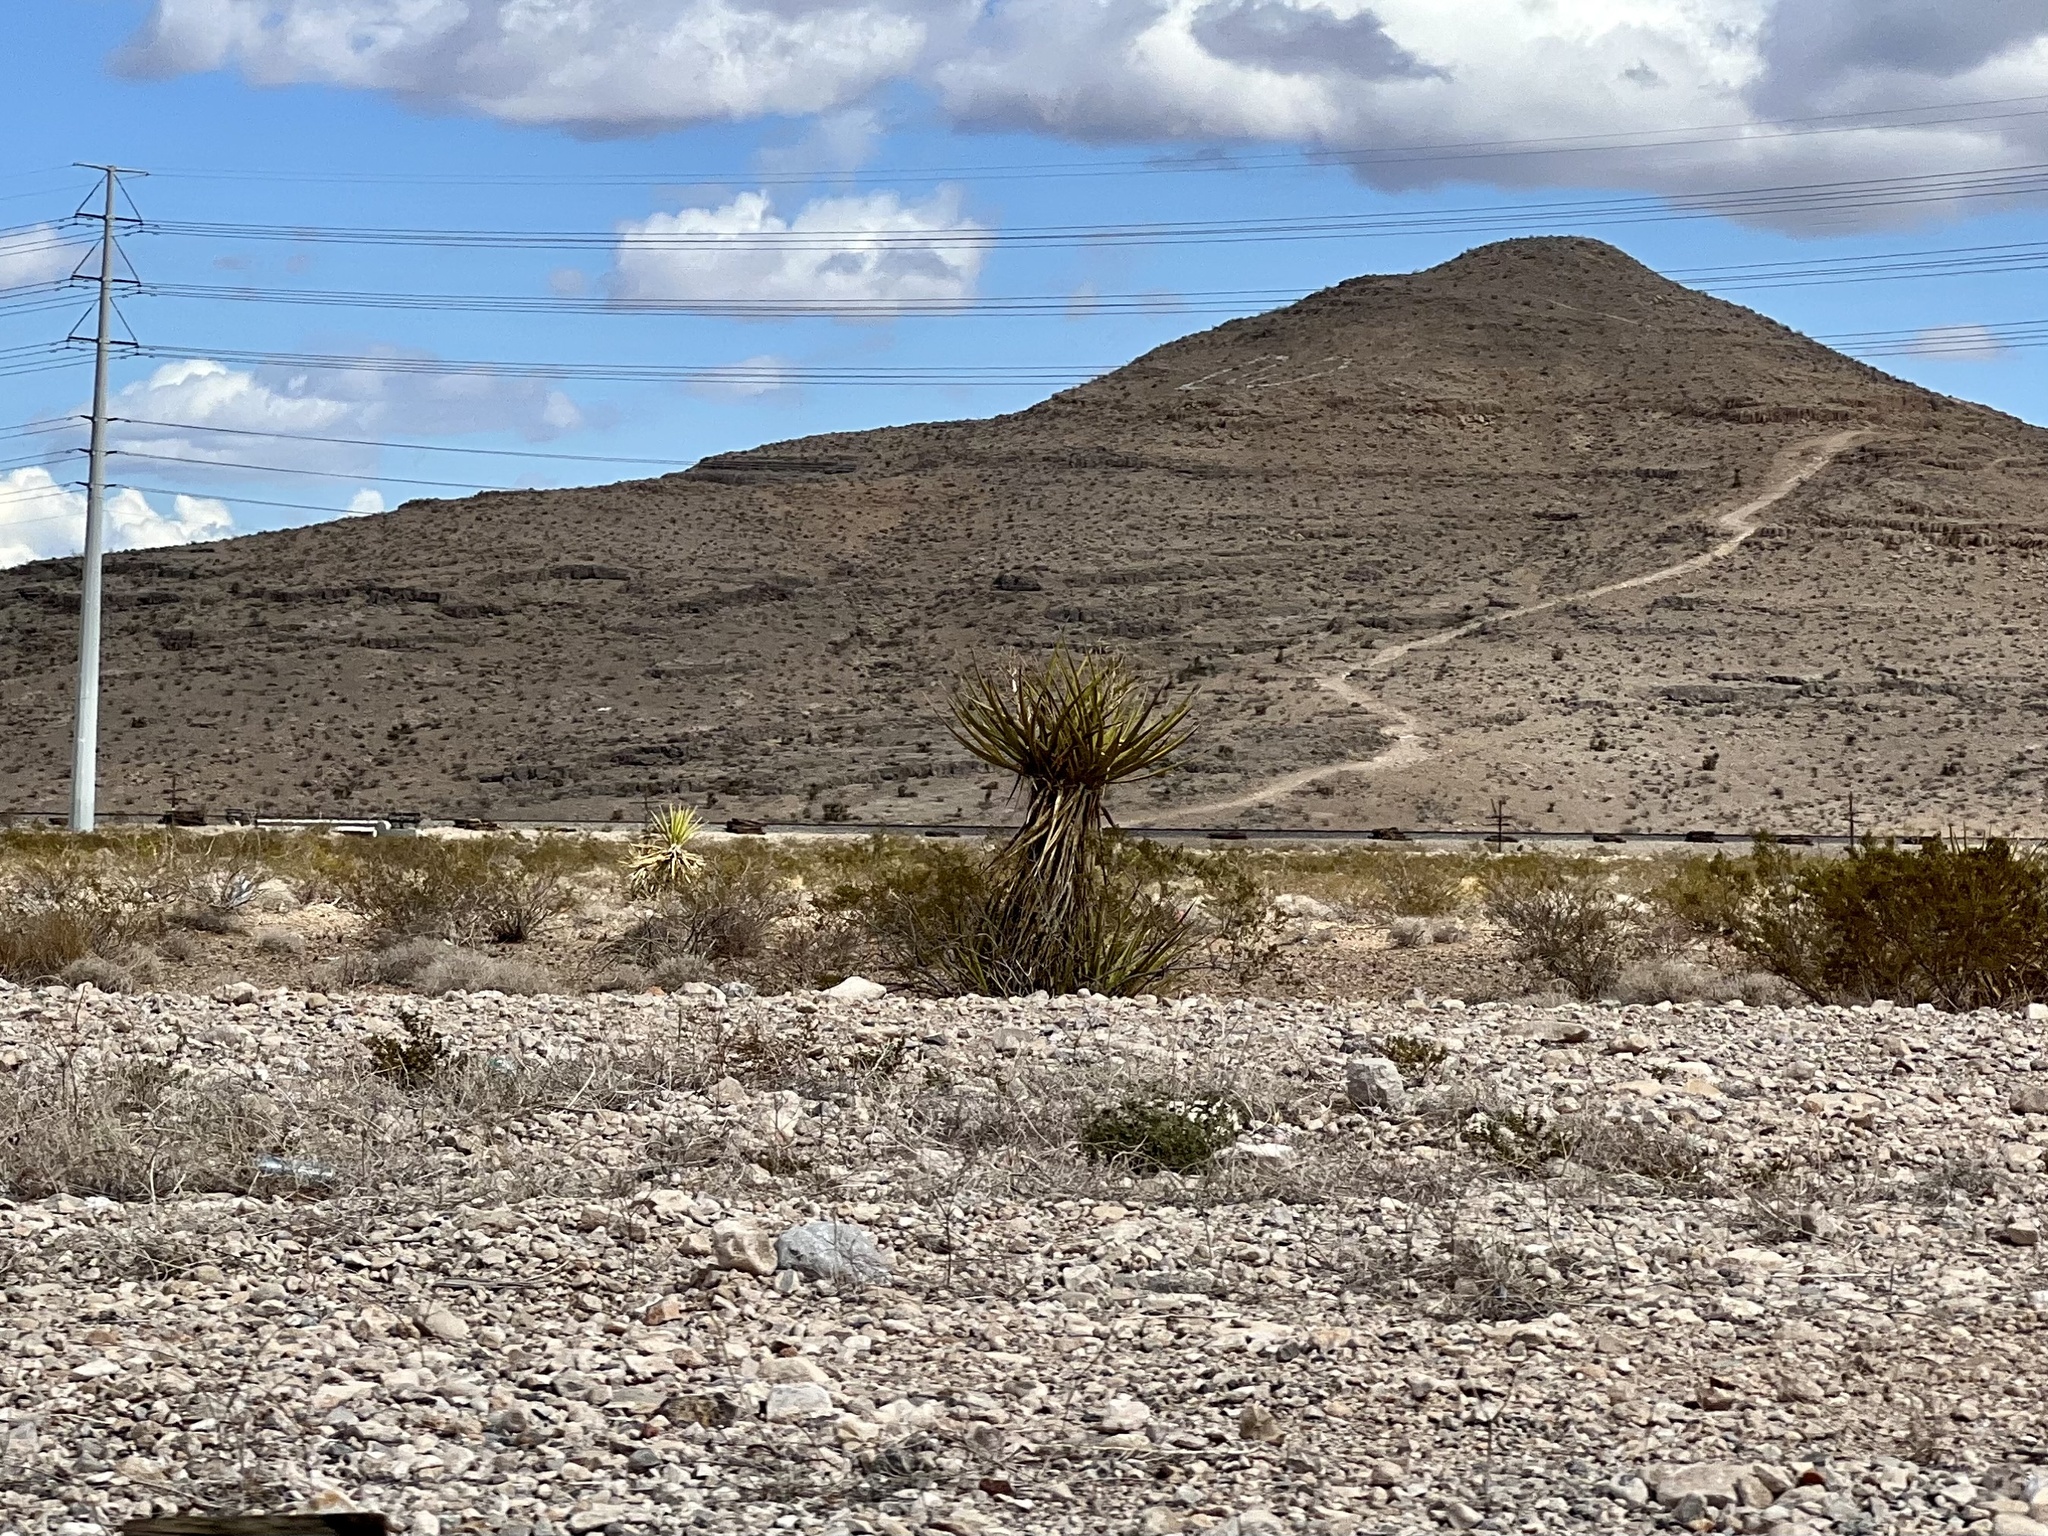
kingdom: Plantae
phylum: Tracheophyta
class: Liliopsida
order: Asparagales
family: Asparagaceae
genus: Yucca
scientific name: Yucca schidigera
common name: Mojave yucca
